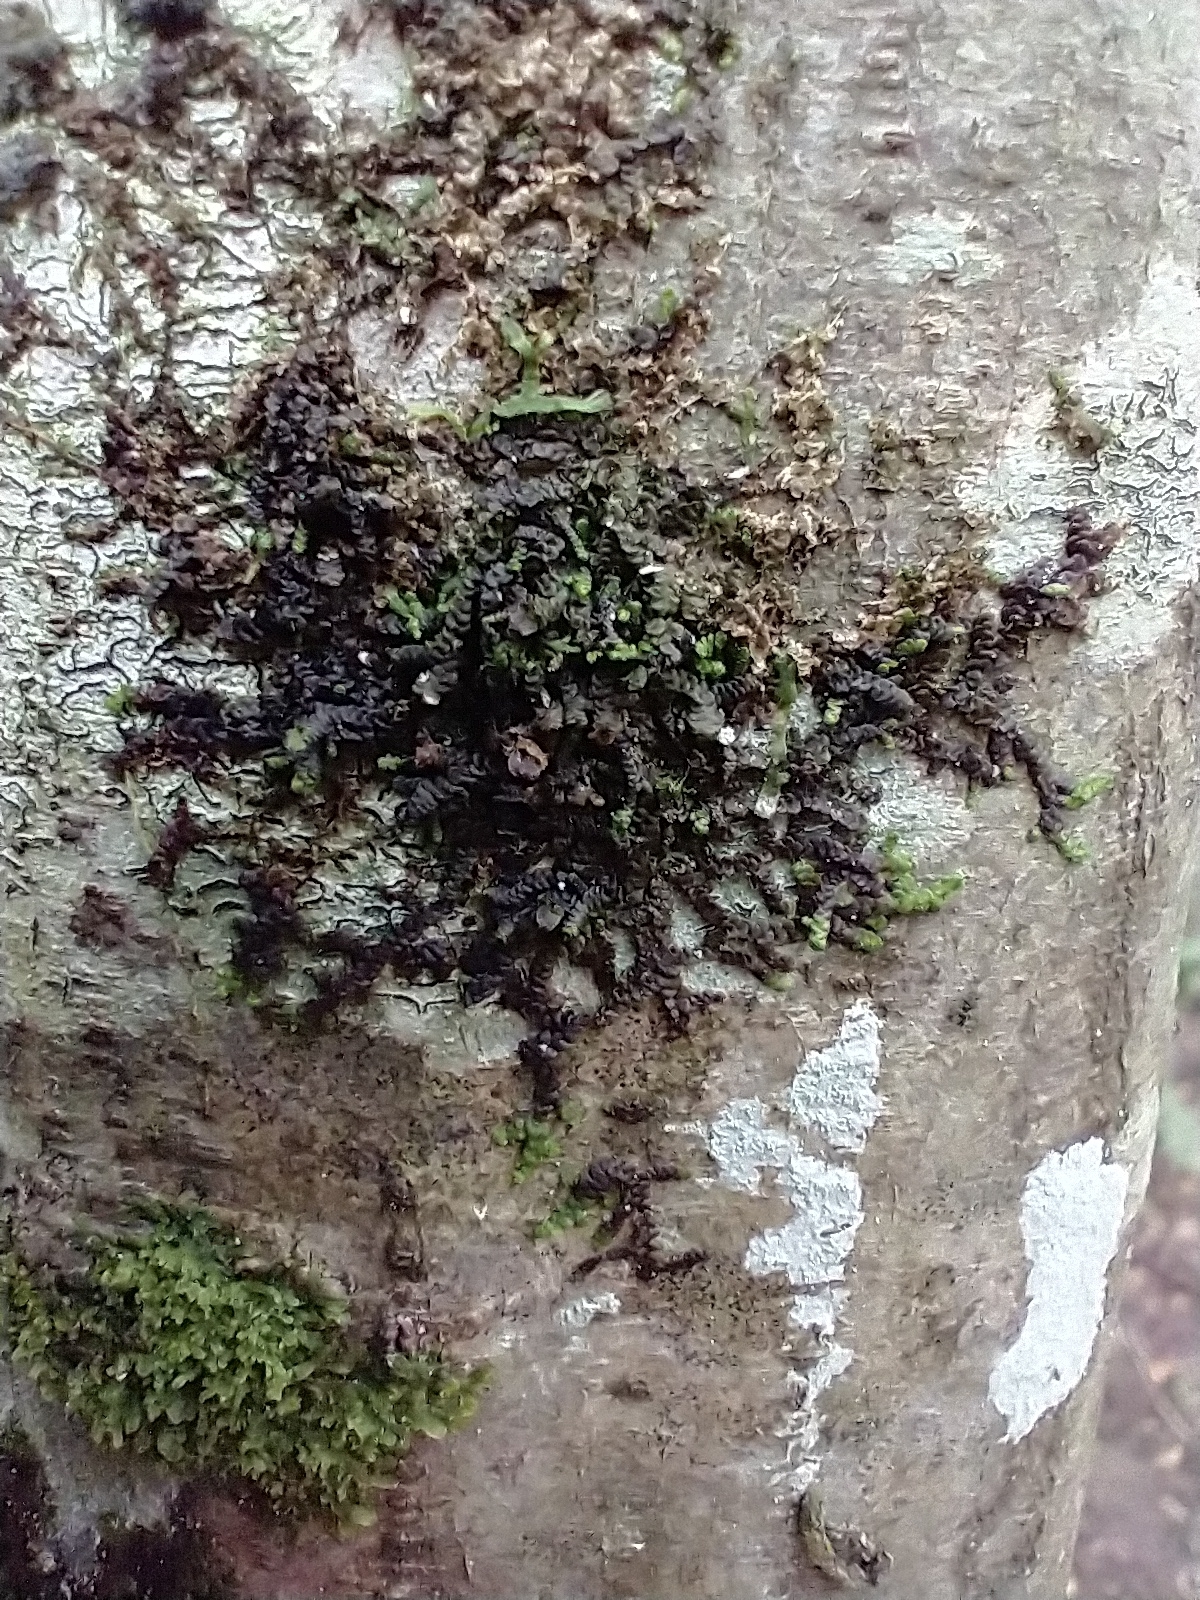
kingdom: Plantae
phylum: Marchantiophyta
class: Jungermanniopsida
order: Porellales
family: Frullaniaceae
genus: Frullania
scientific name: Frullania dilatata
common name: Dilated scalewort
